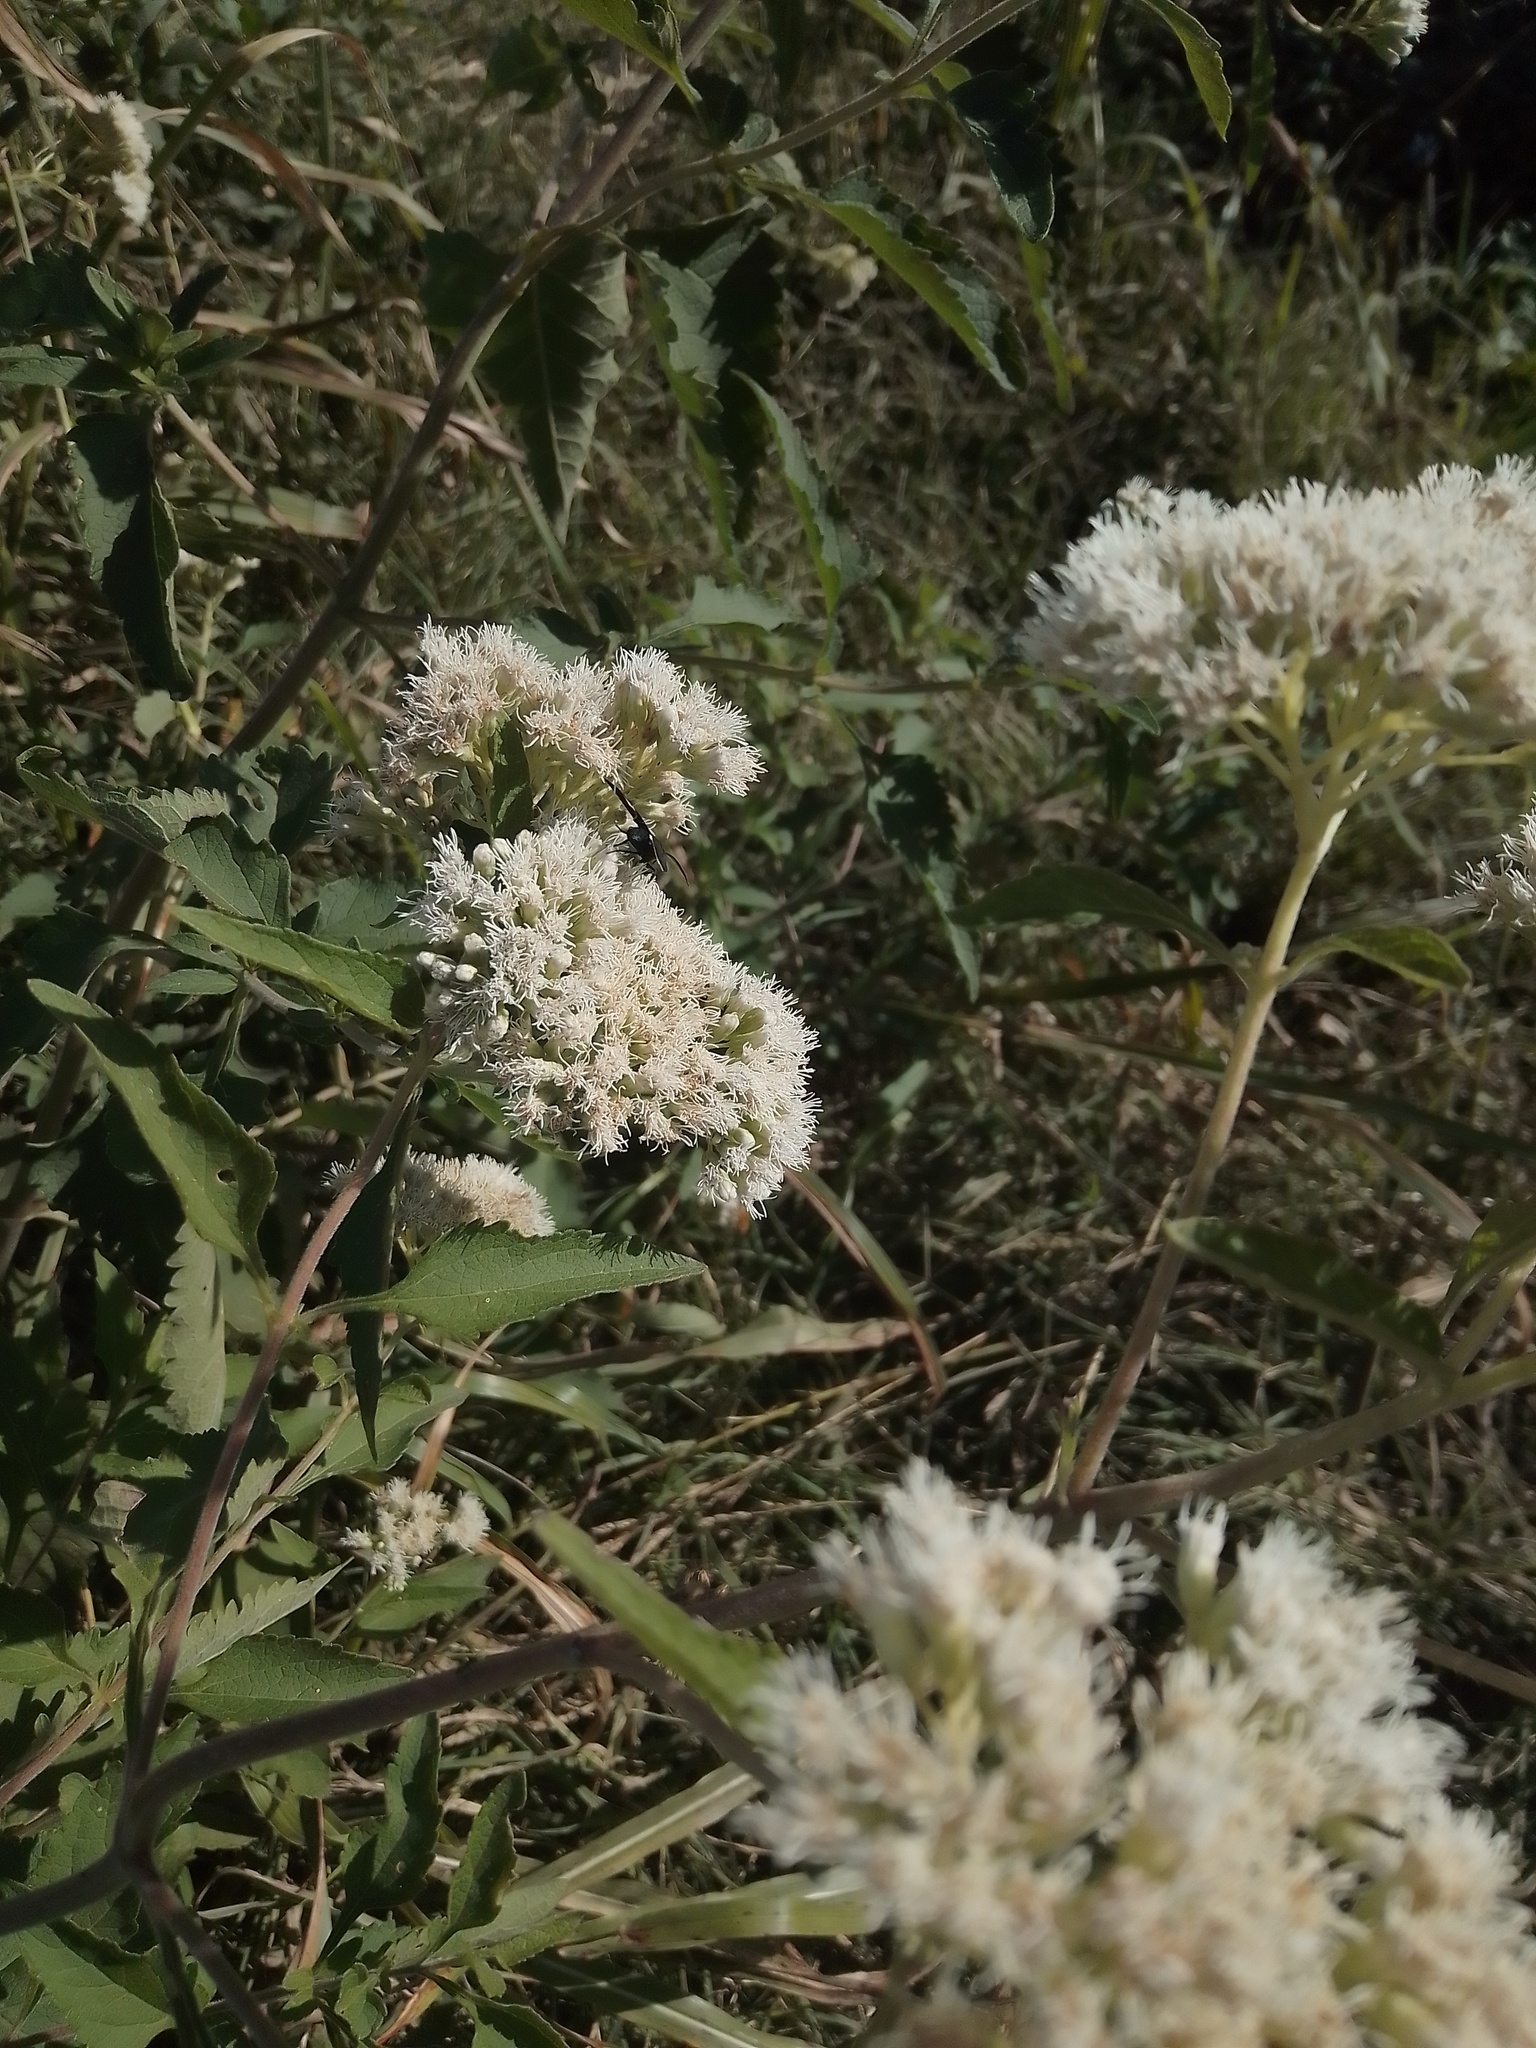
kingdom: Animalia
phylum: Arthropoda
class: Insecta
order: Lepidoptera
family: Erebidae
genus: Ctenucha
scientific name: Ctenucha rubriceps
